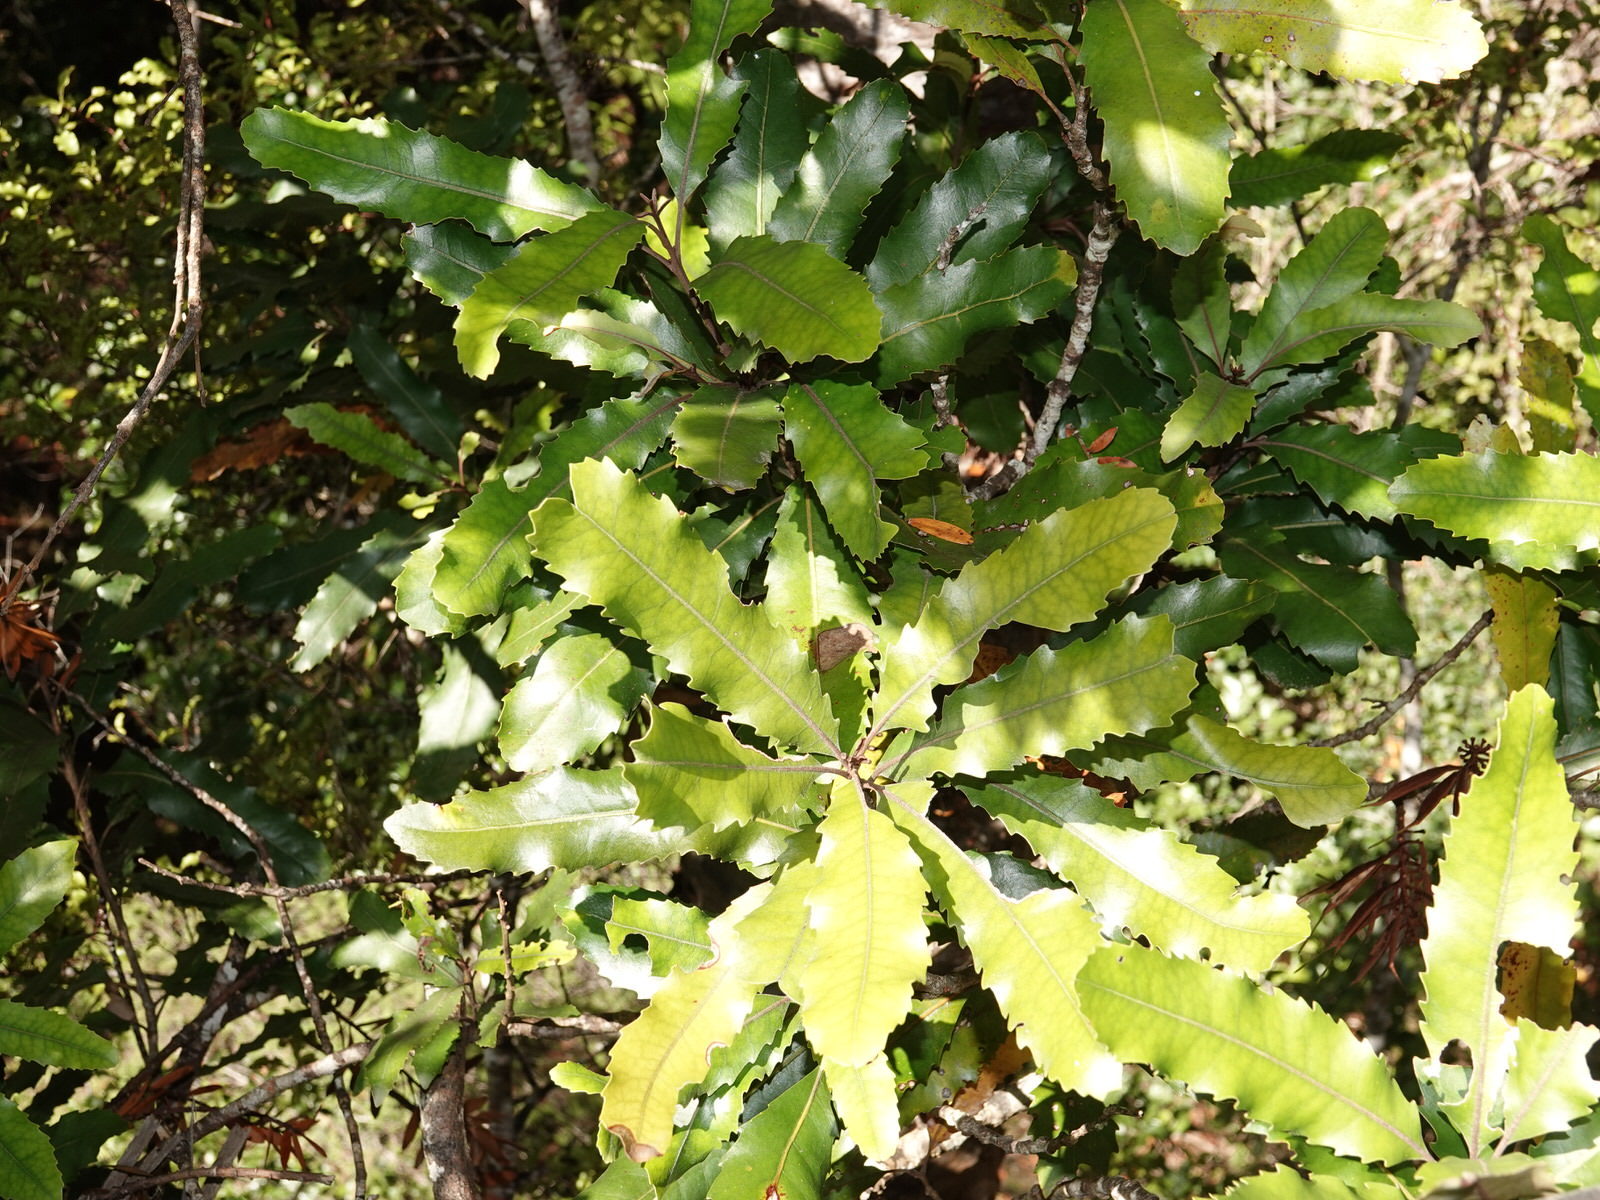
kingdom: Plantae
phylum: Tracheophyta
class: Magnoliopsida
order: Proteales
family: Proteaceae
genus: Knightia
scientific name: Knightia excelsa
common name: New zealand-honeysuckle
